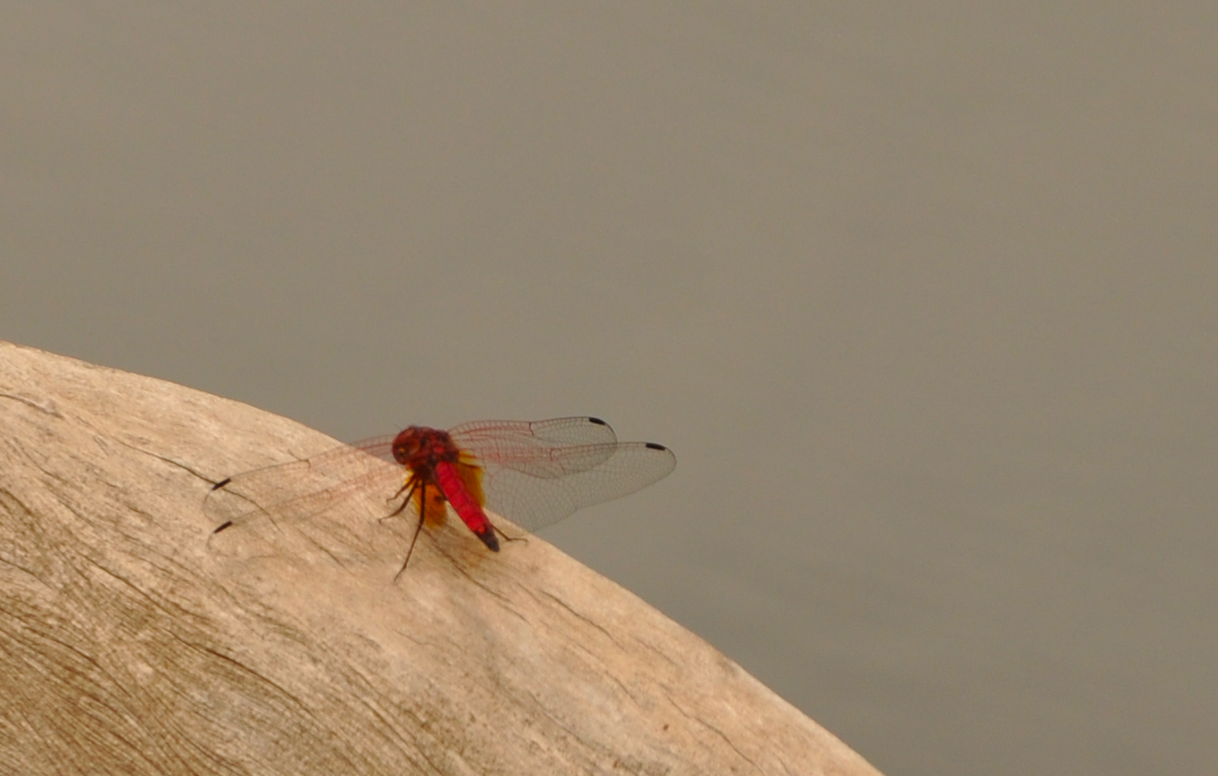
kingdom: Animalia
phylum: Arthropoda
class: Insecta
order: Odonata
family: Libellulidae
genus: Trithemis
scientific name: Trithemis selika
